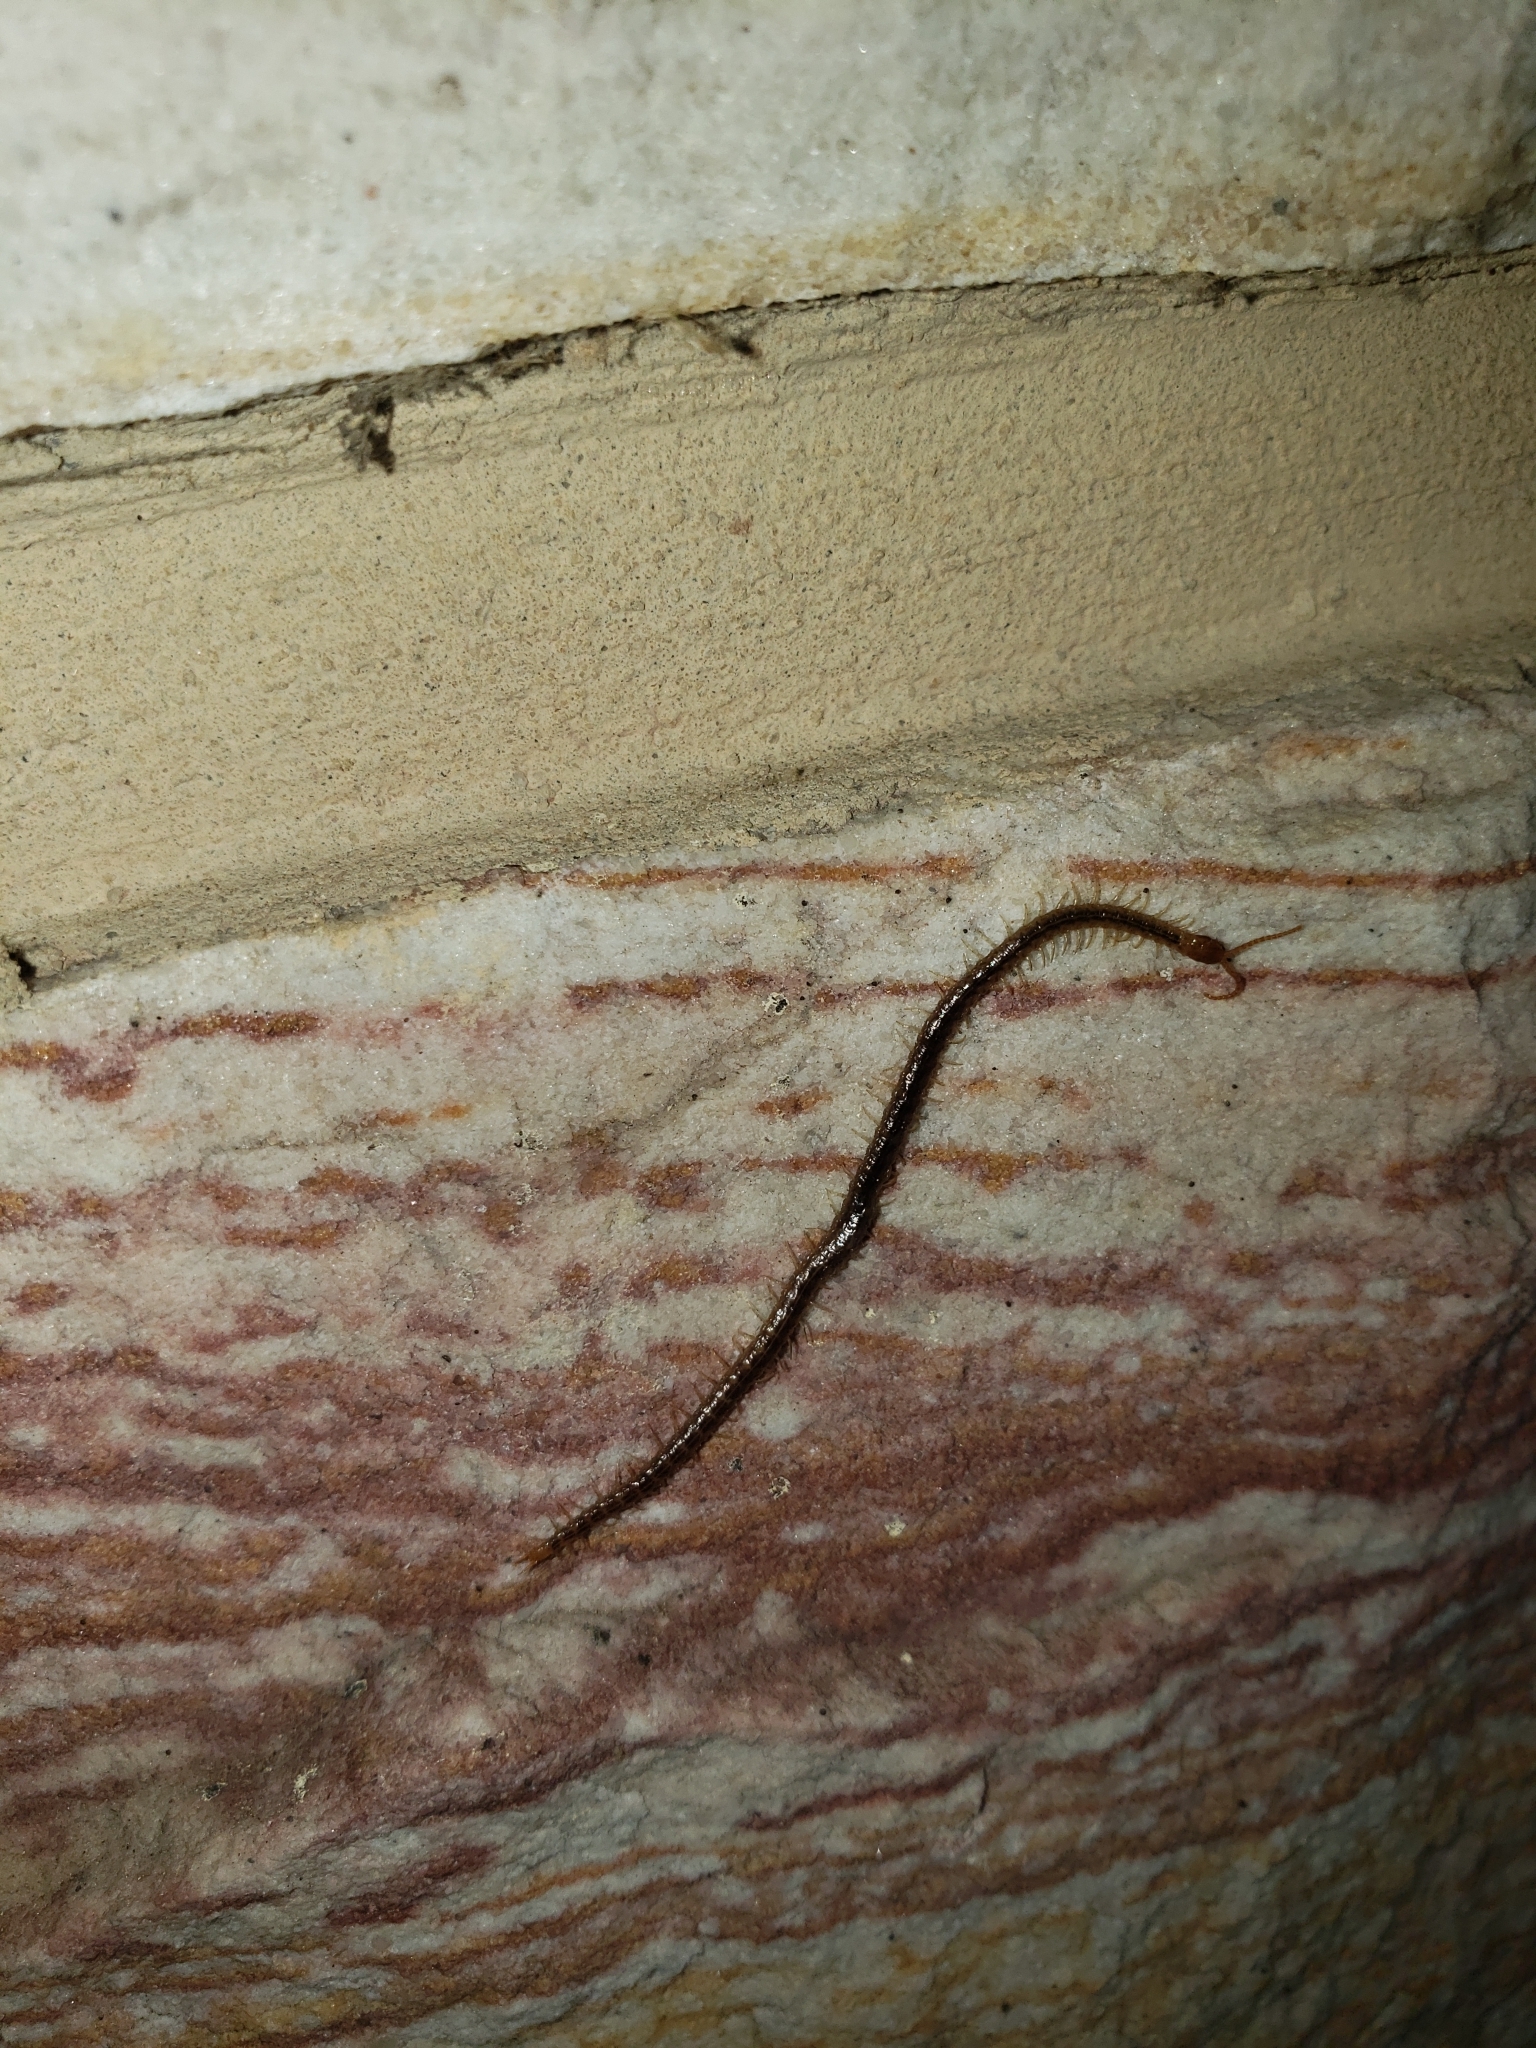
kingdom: Animalia
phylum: Arthropoda
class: Chilopoda
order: Geophilomorpha
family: Geophilidae
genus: Geophilus
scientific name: Geophilus vittatus
